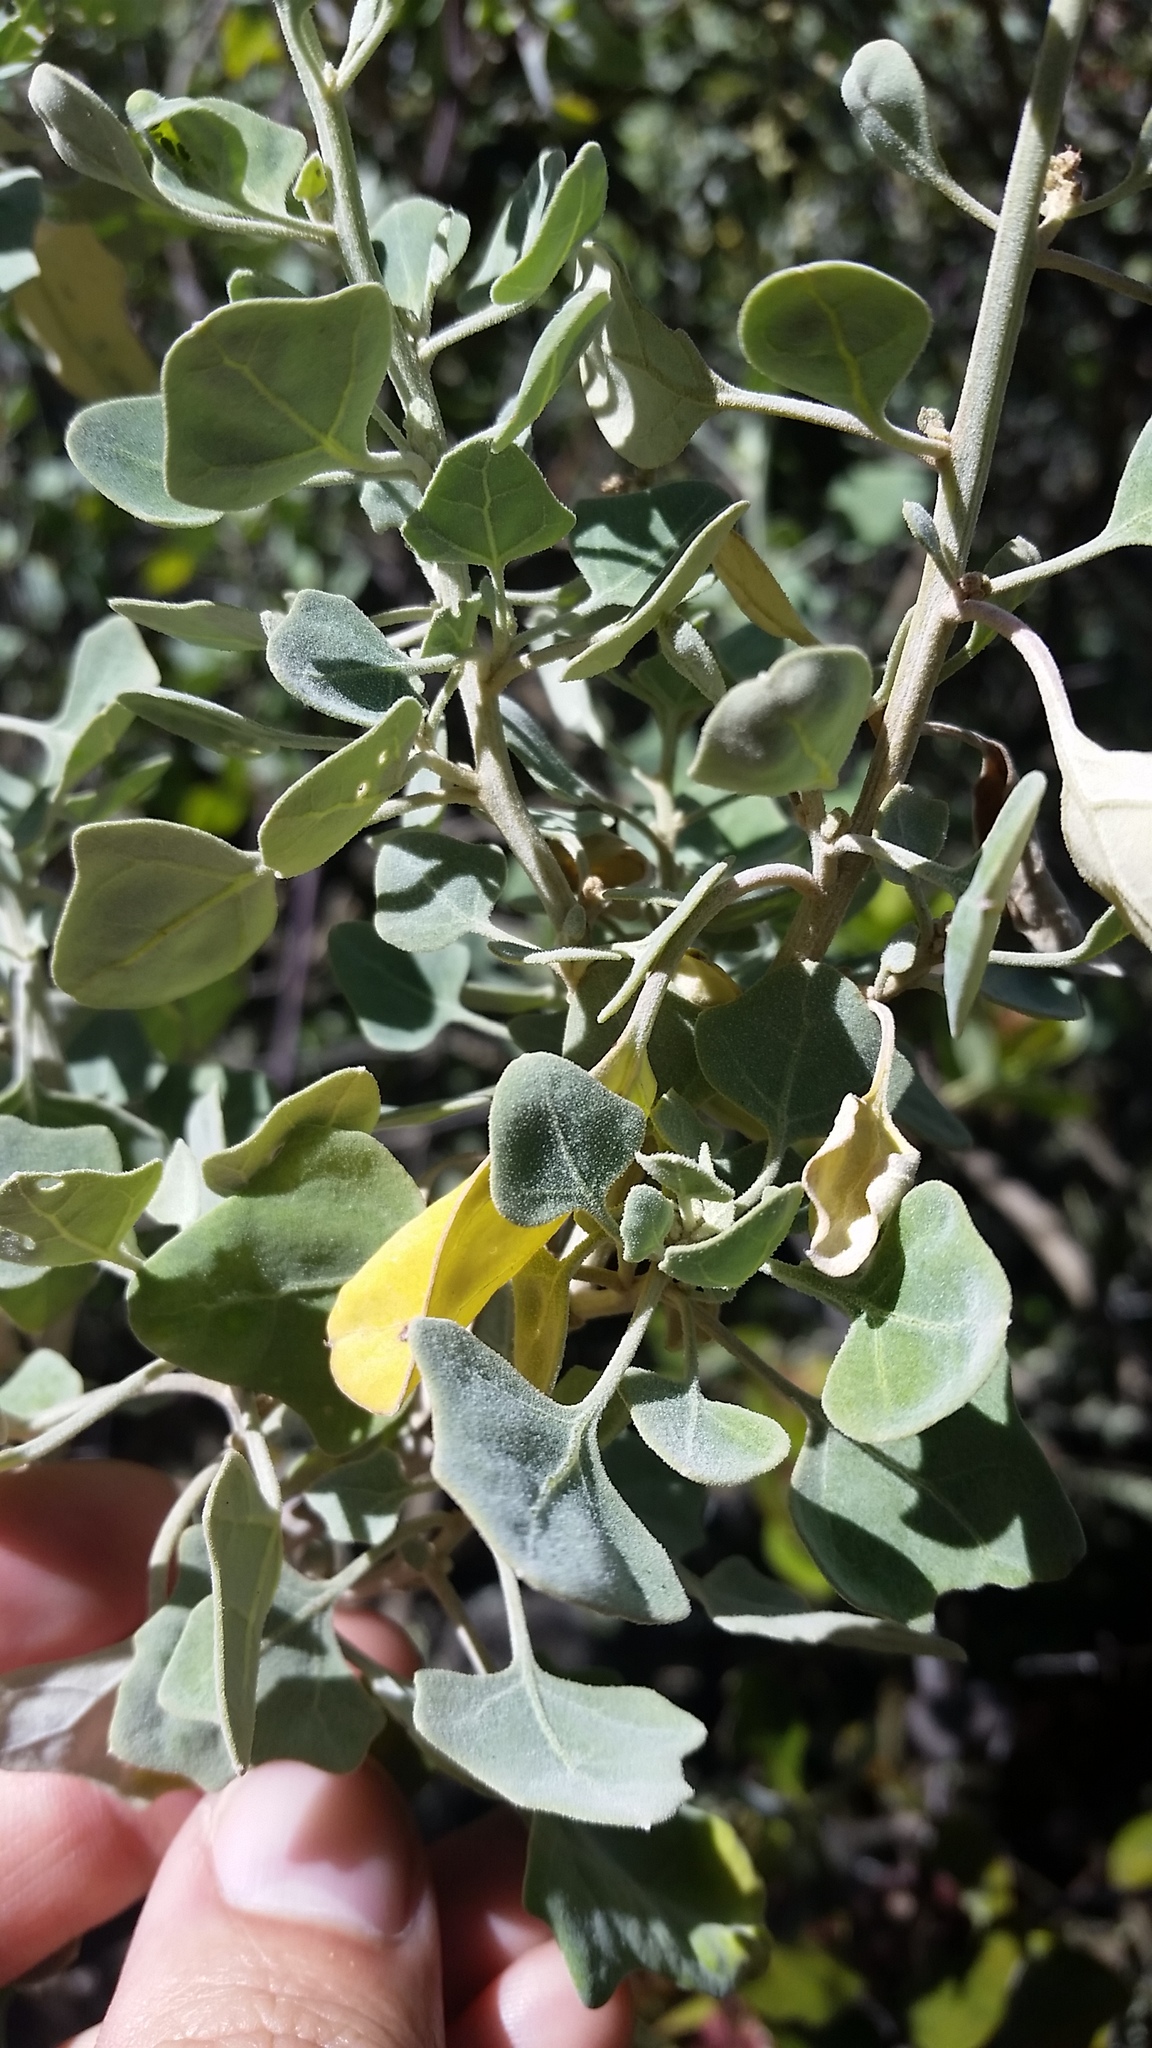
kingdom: Plantae
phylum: Tracheophyta
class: Magnoliopsida
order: Caryophyllales
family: Amaranthaceae
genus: Chenopodium
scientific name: Chenopodium oahuense
